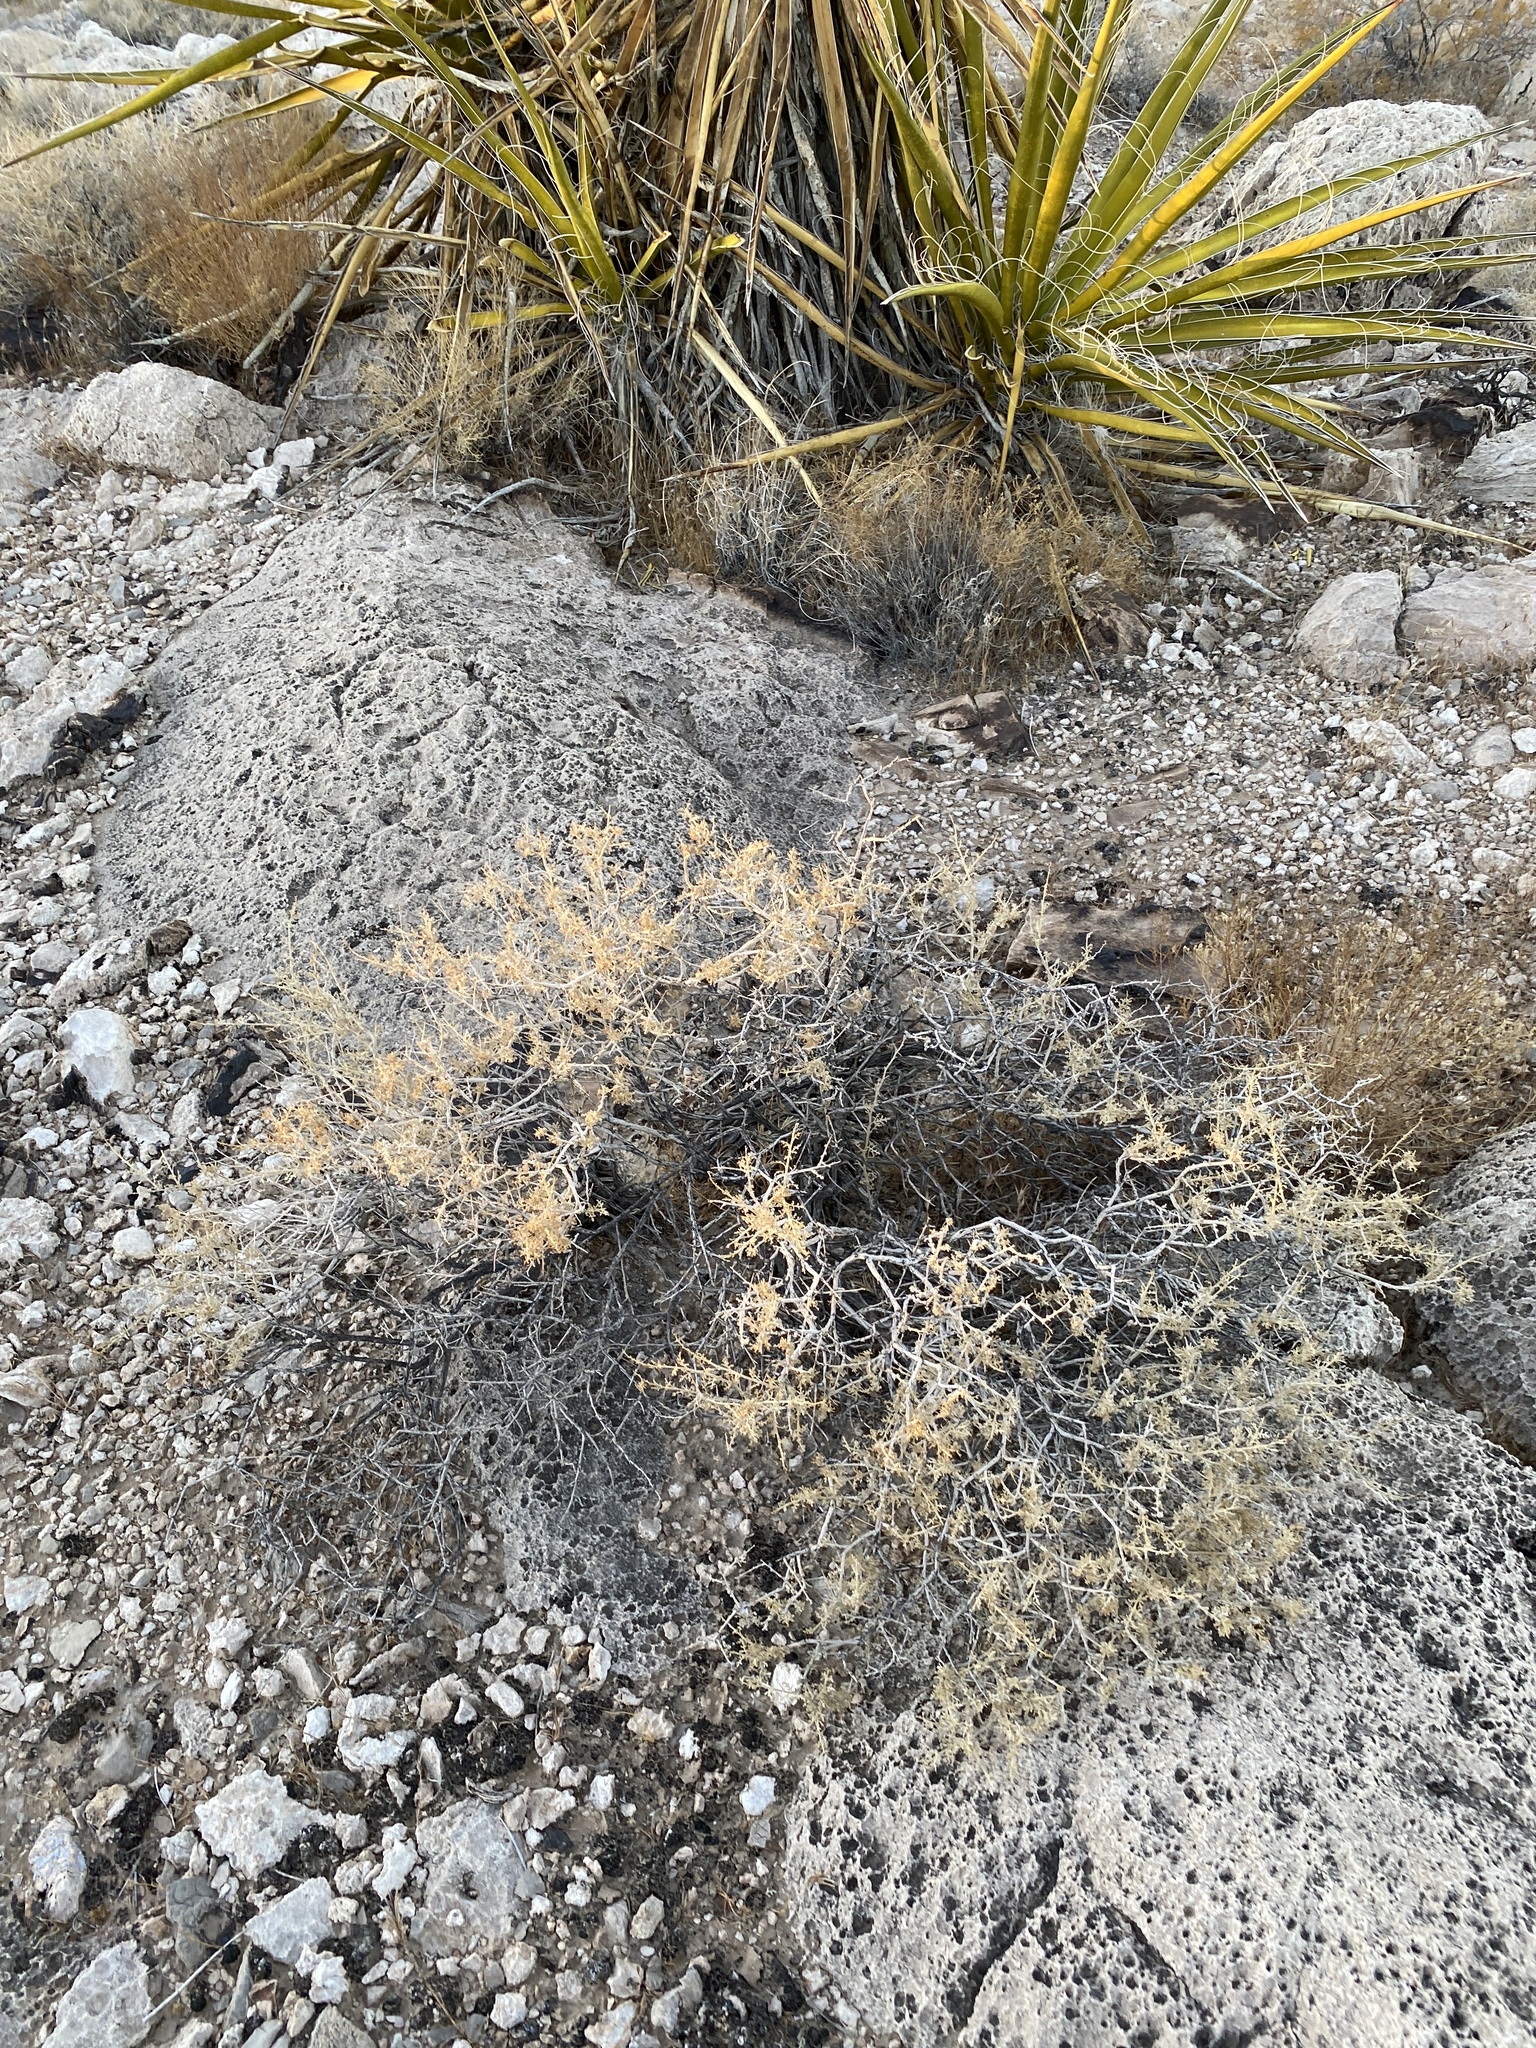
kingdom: Plantae
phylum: Tracheophyta
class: Magnoliopsida
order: Asterales
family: Asteraceae
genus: Ambrosia
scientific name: Ambrosia dumosa
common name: Bur-sage
